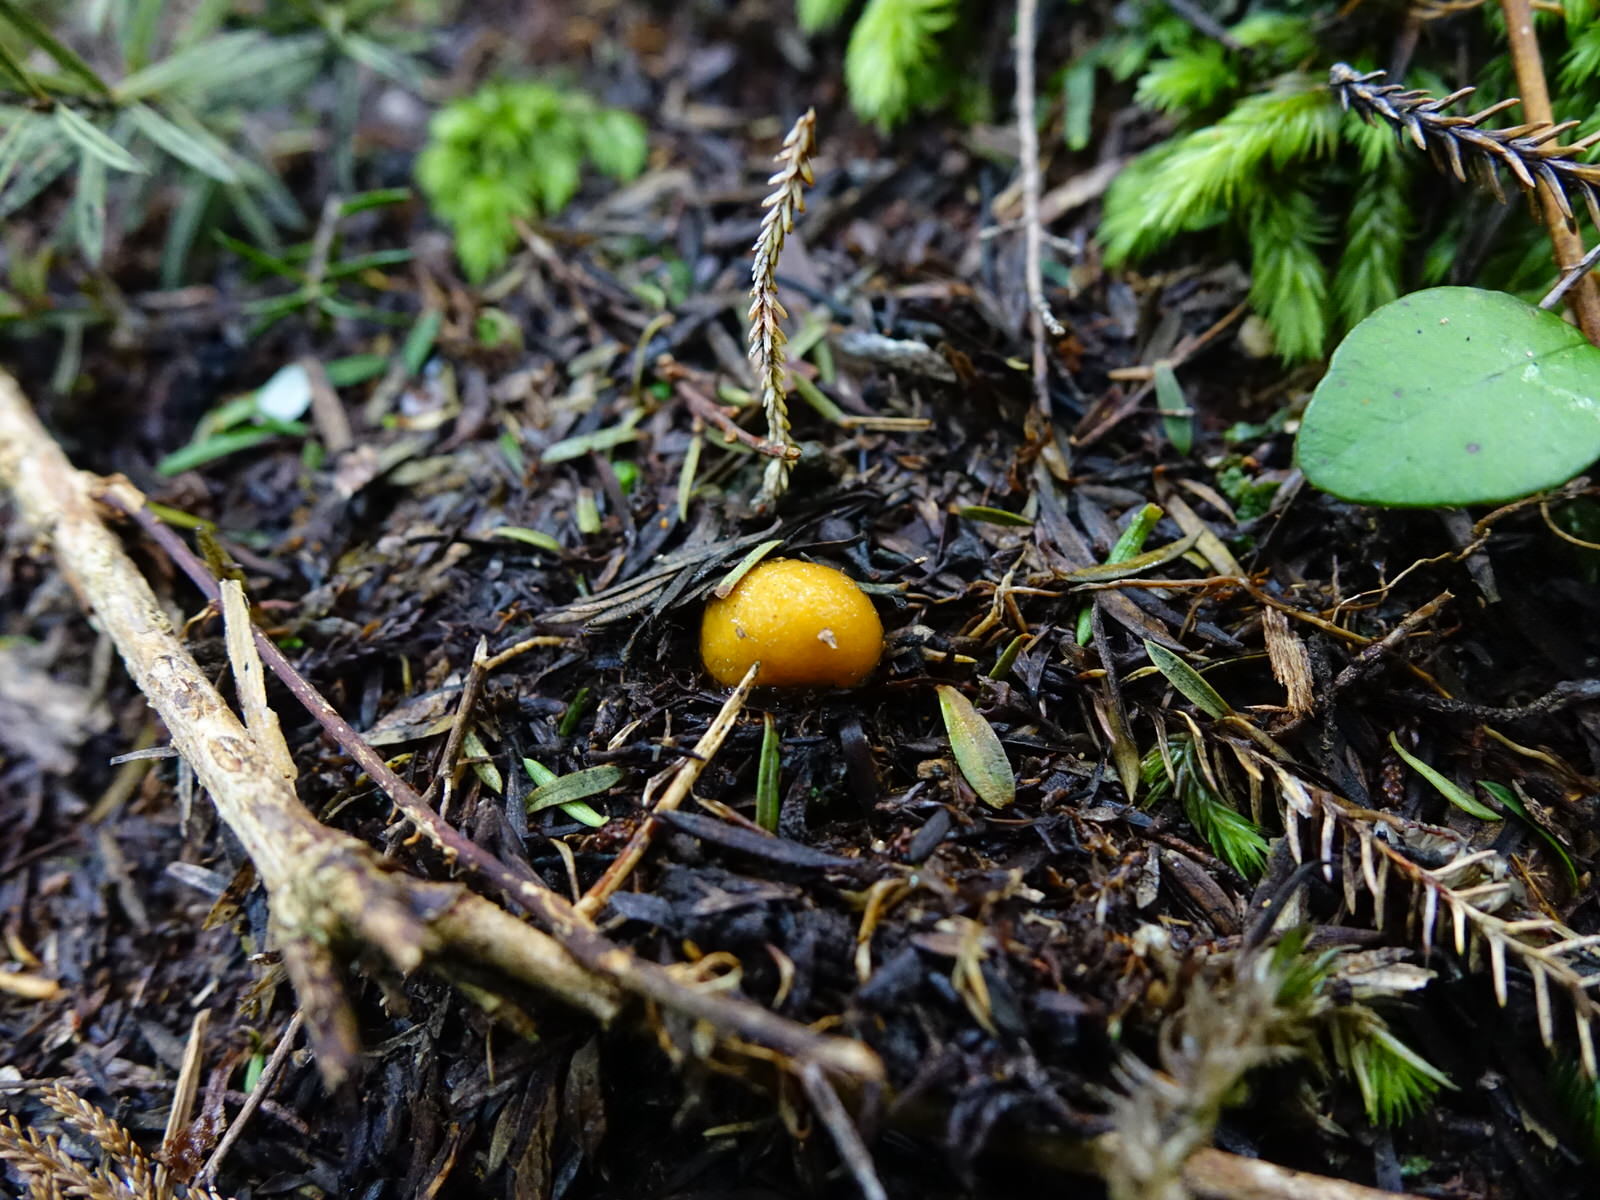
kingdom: Fungi
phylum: Basidiomycota
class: Agaricomycetes
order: Agaricales
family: Cortinariaceae
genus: Cortinarius
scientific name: Cortinarius peraurantiacus
